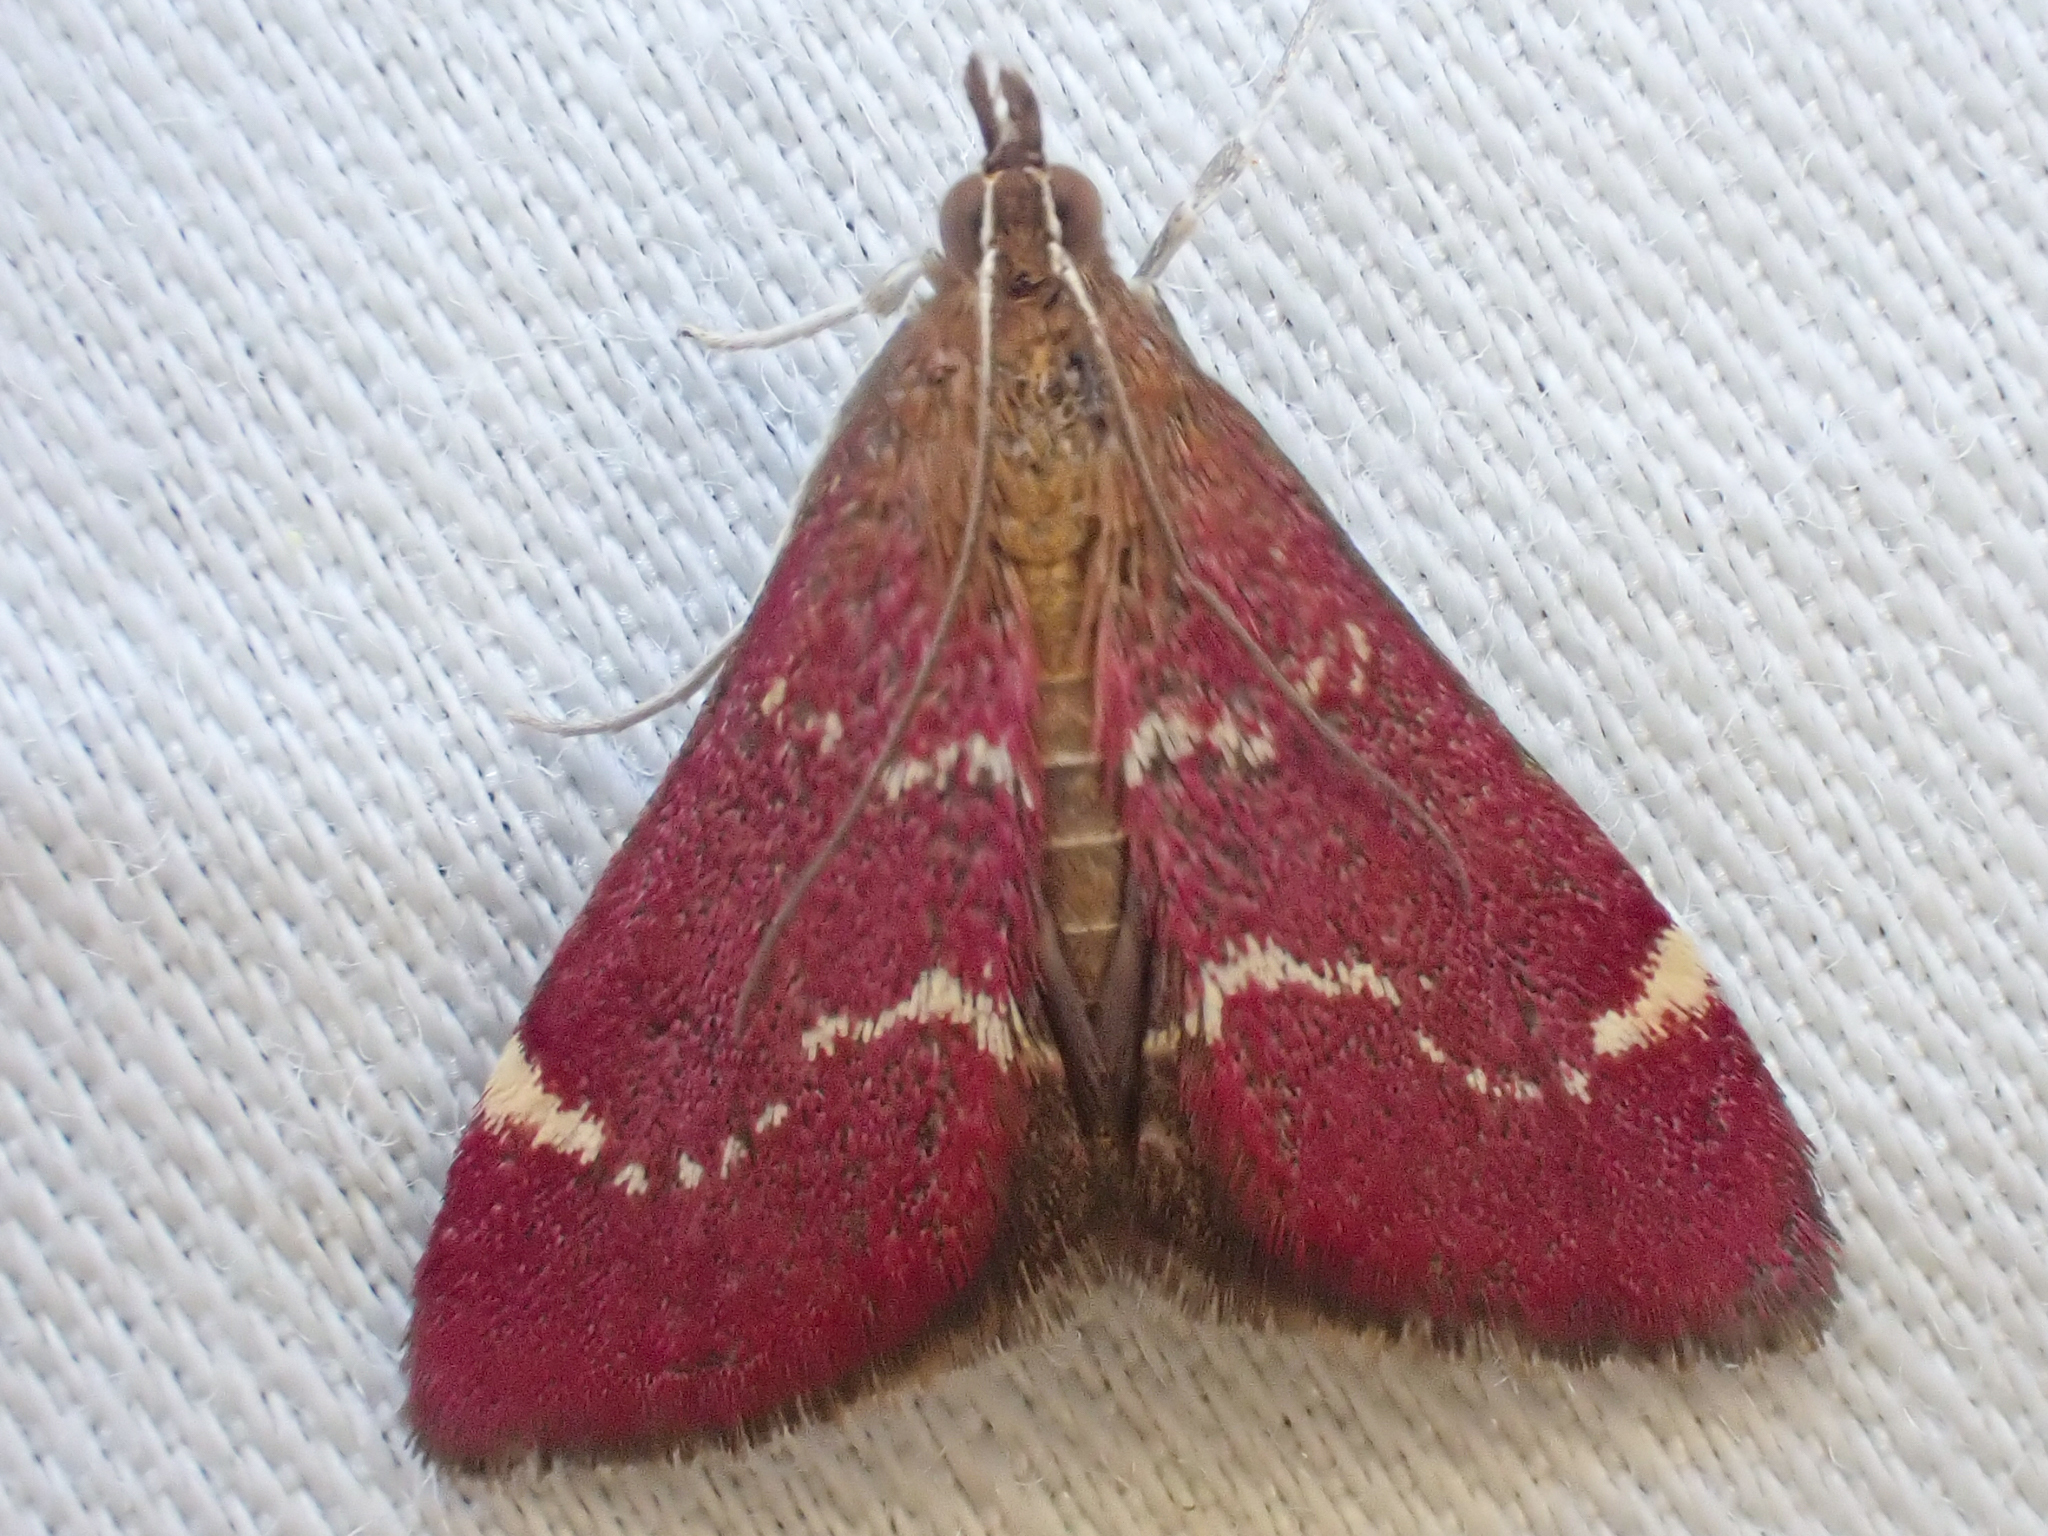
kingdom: Animalia
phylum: Arthropoda
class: Insecta
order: Lepidoptera
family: Crambidae
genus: Pyrausta
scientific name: Pyrausta grotei
